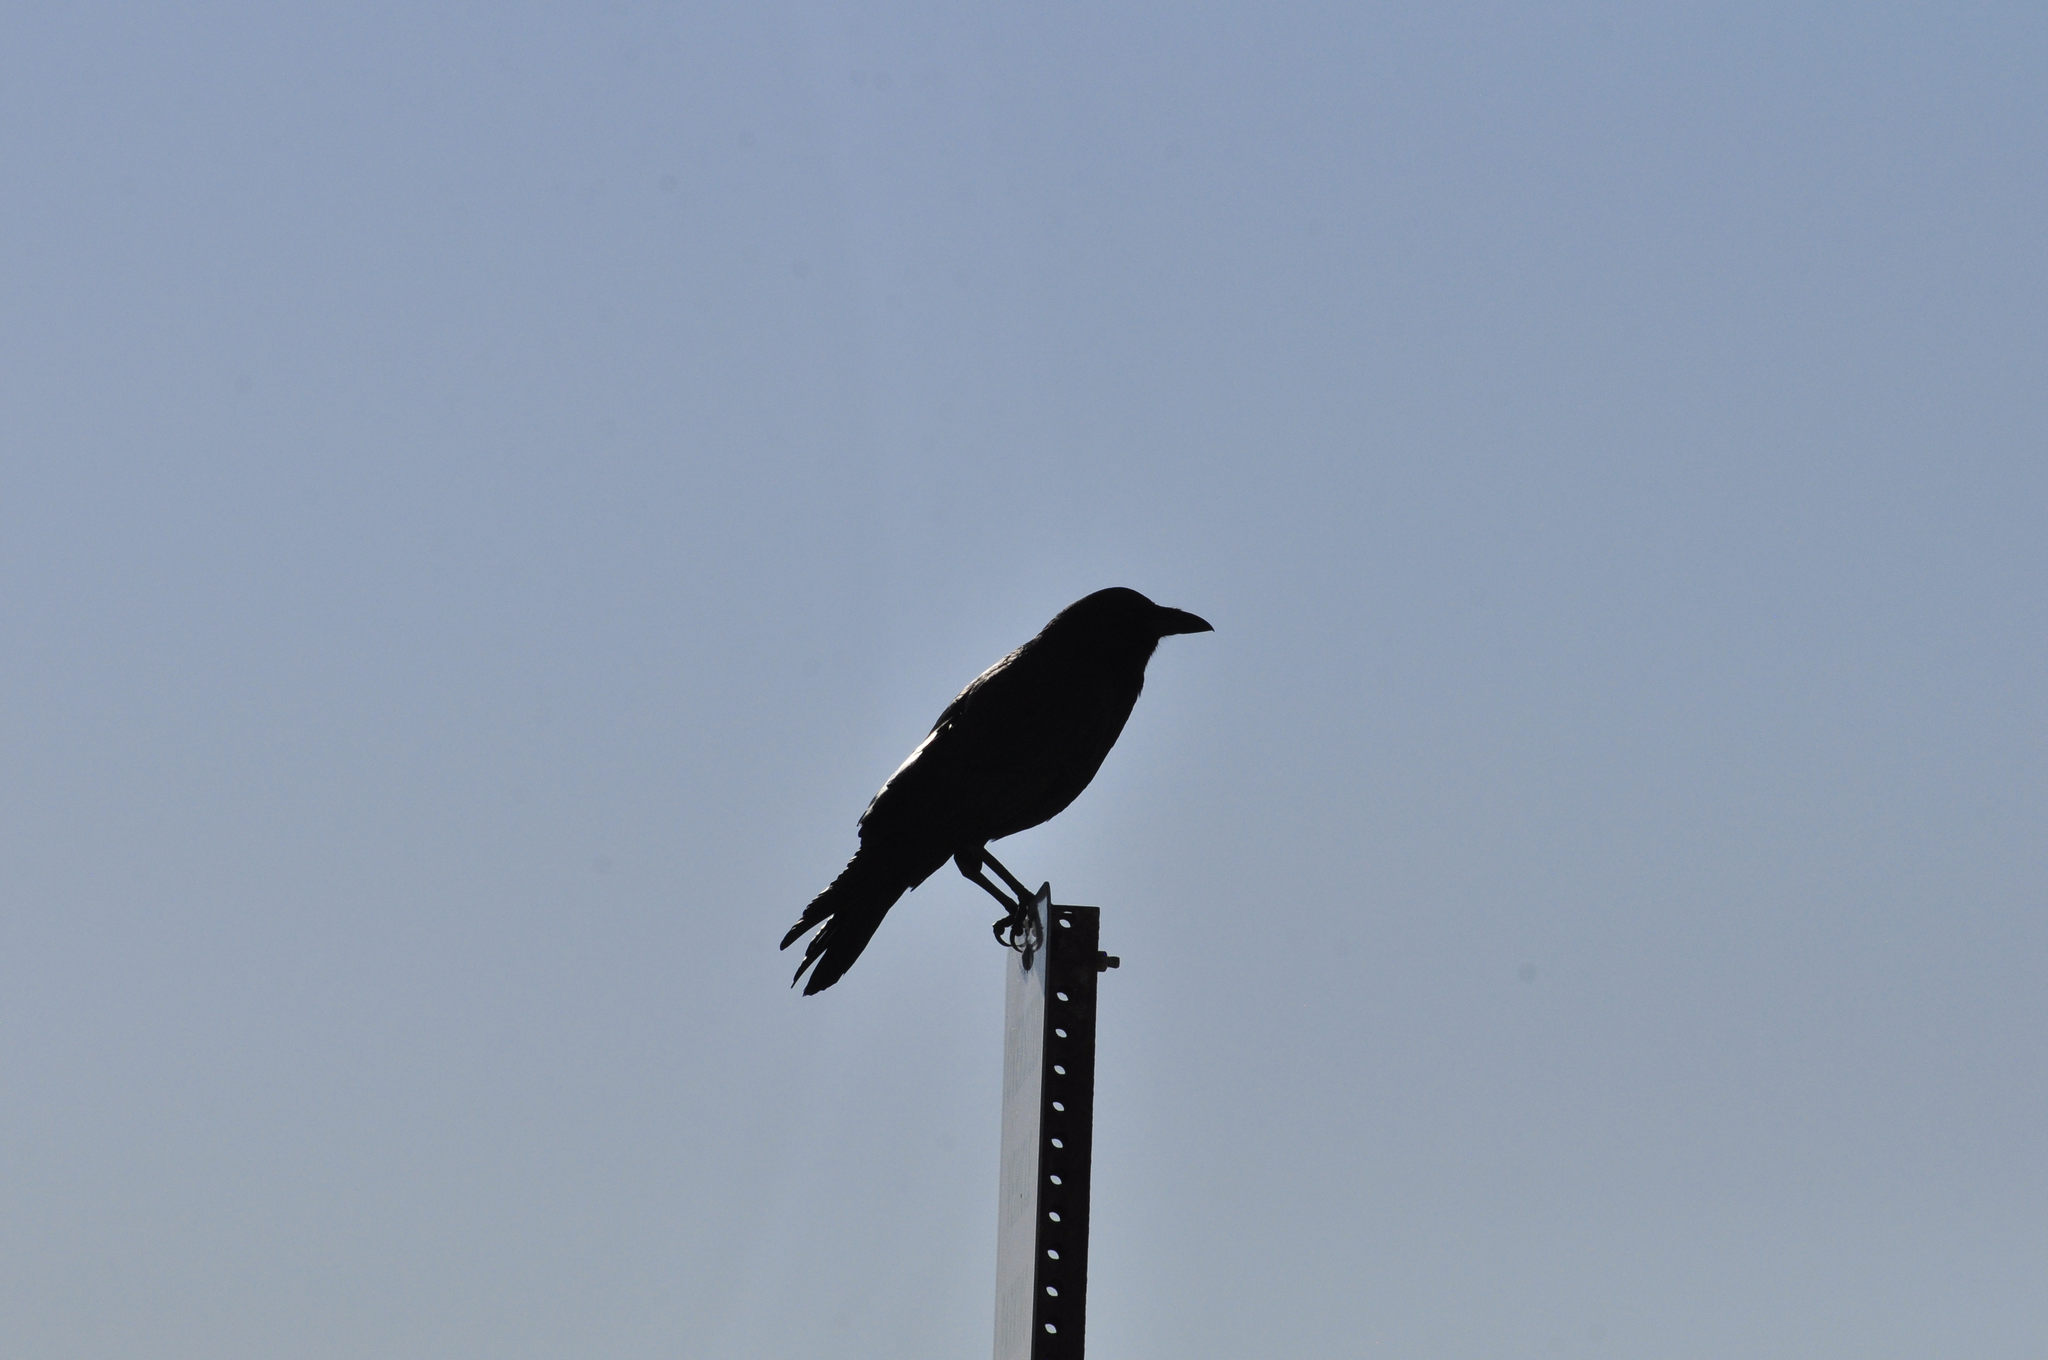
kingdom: Animalia
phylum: Chordata
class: Aves
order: Passeriformes
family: Corvidae
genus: Corvus
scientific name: Corvus brachyrhynchos
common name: American crow
